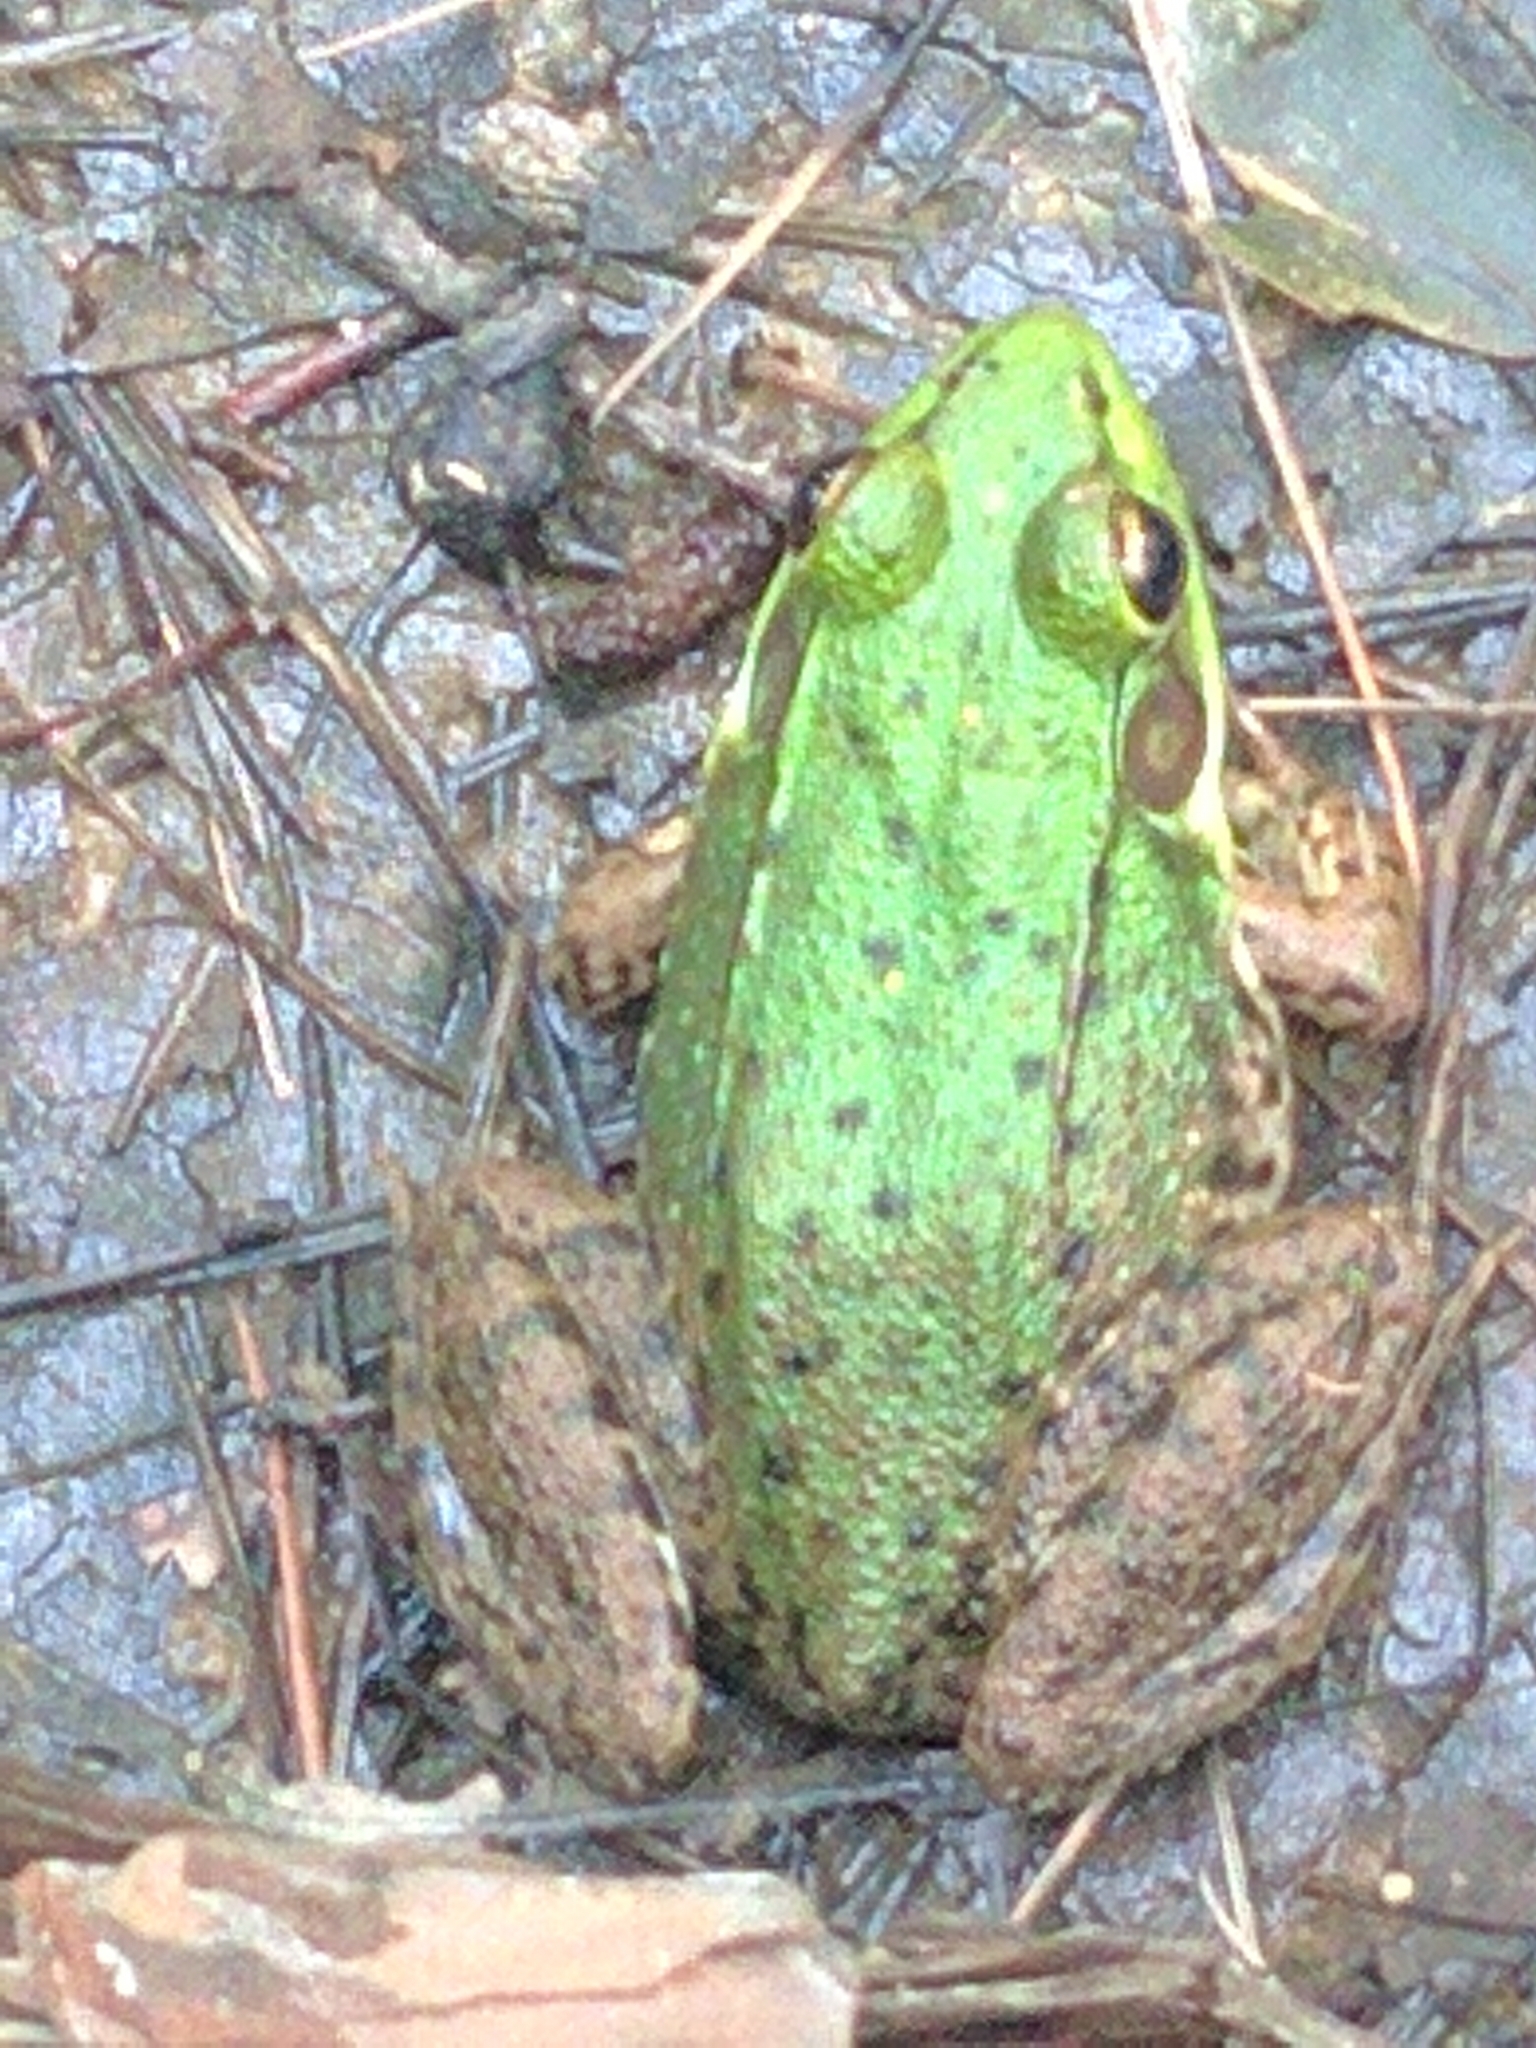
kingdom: Animalia
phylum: Chordata
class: Amphibia
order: Anura
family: Ranidae
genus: Lithobates
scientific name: Lithobates clamitans
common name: Green frog
